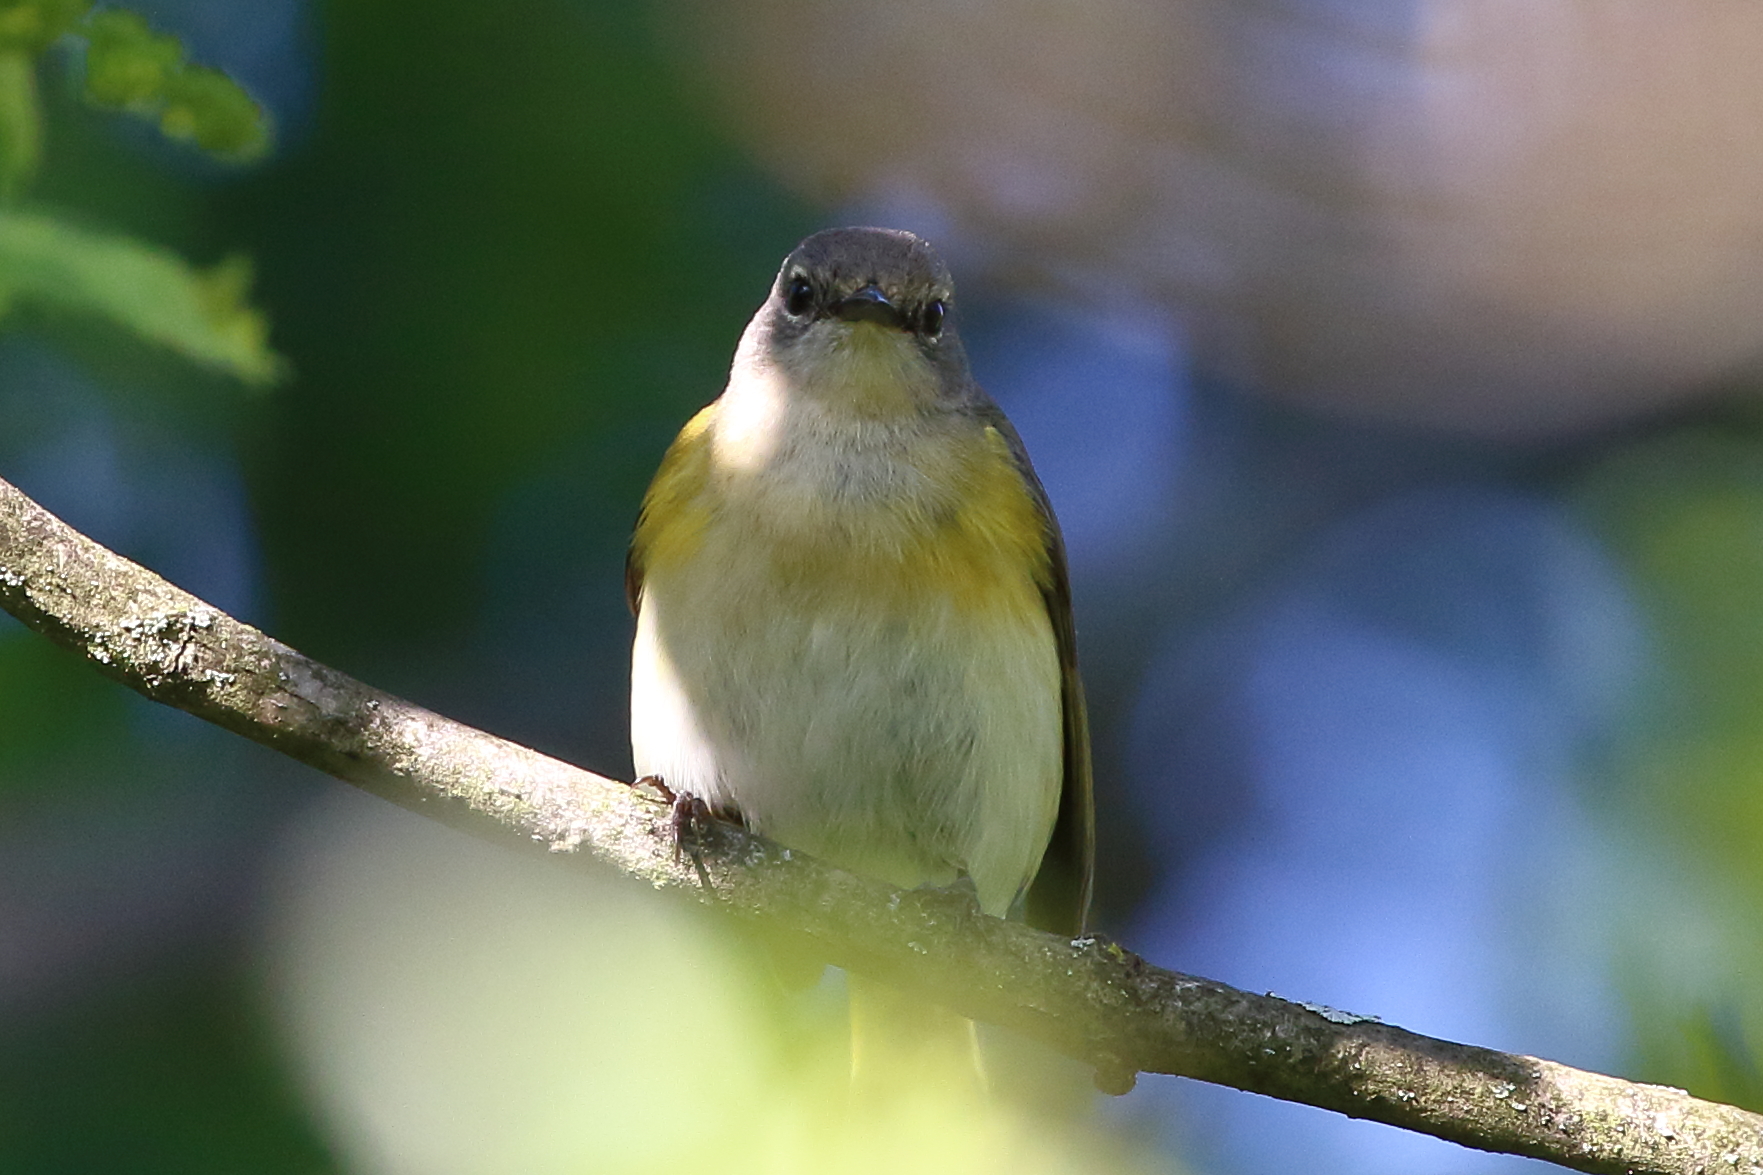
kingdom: Animalia
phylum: Chordata
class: Aves
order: Passeriformes
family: Parulidae
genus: Setophaga
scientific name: Setophaga ruticilla
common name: American redstart
